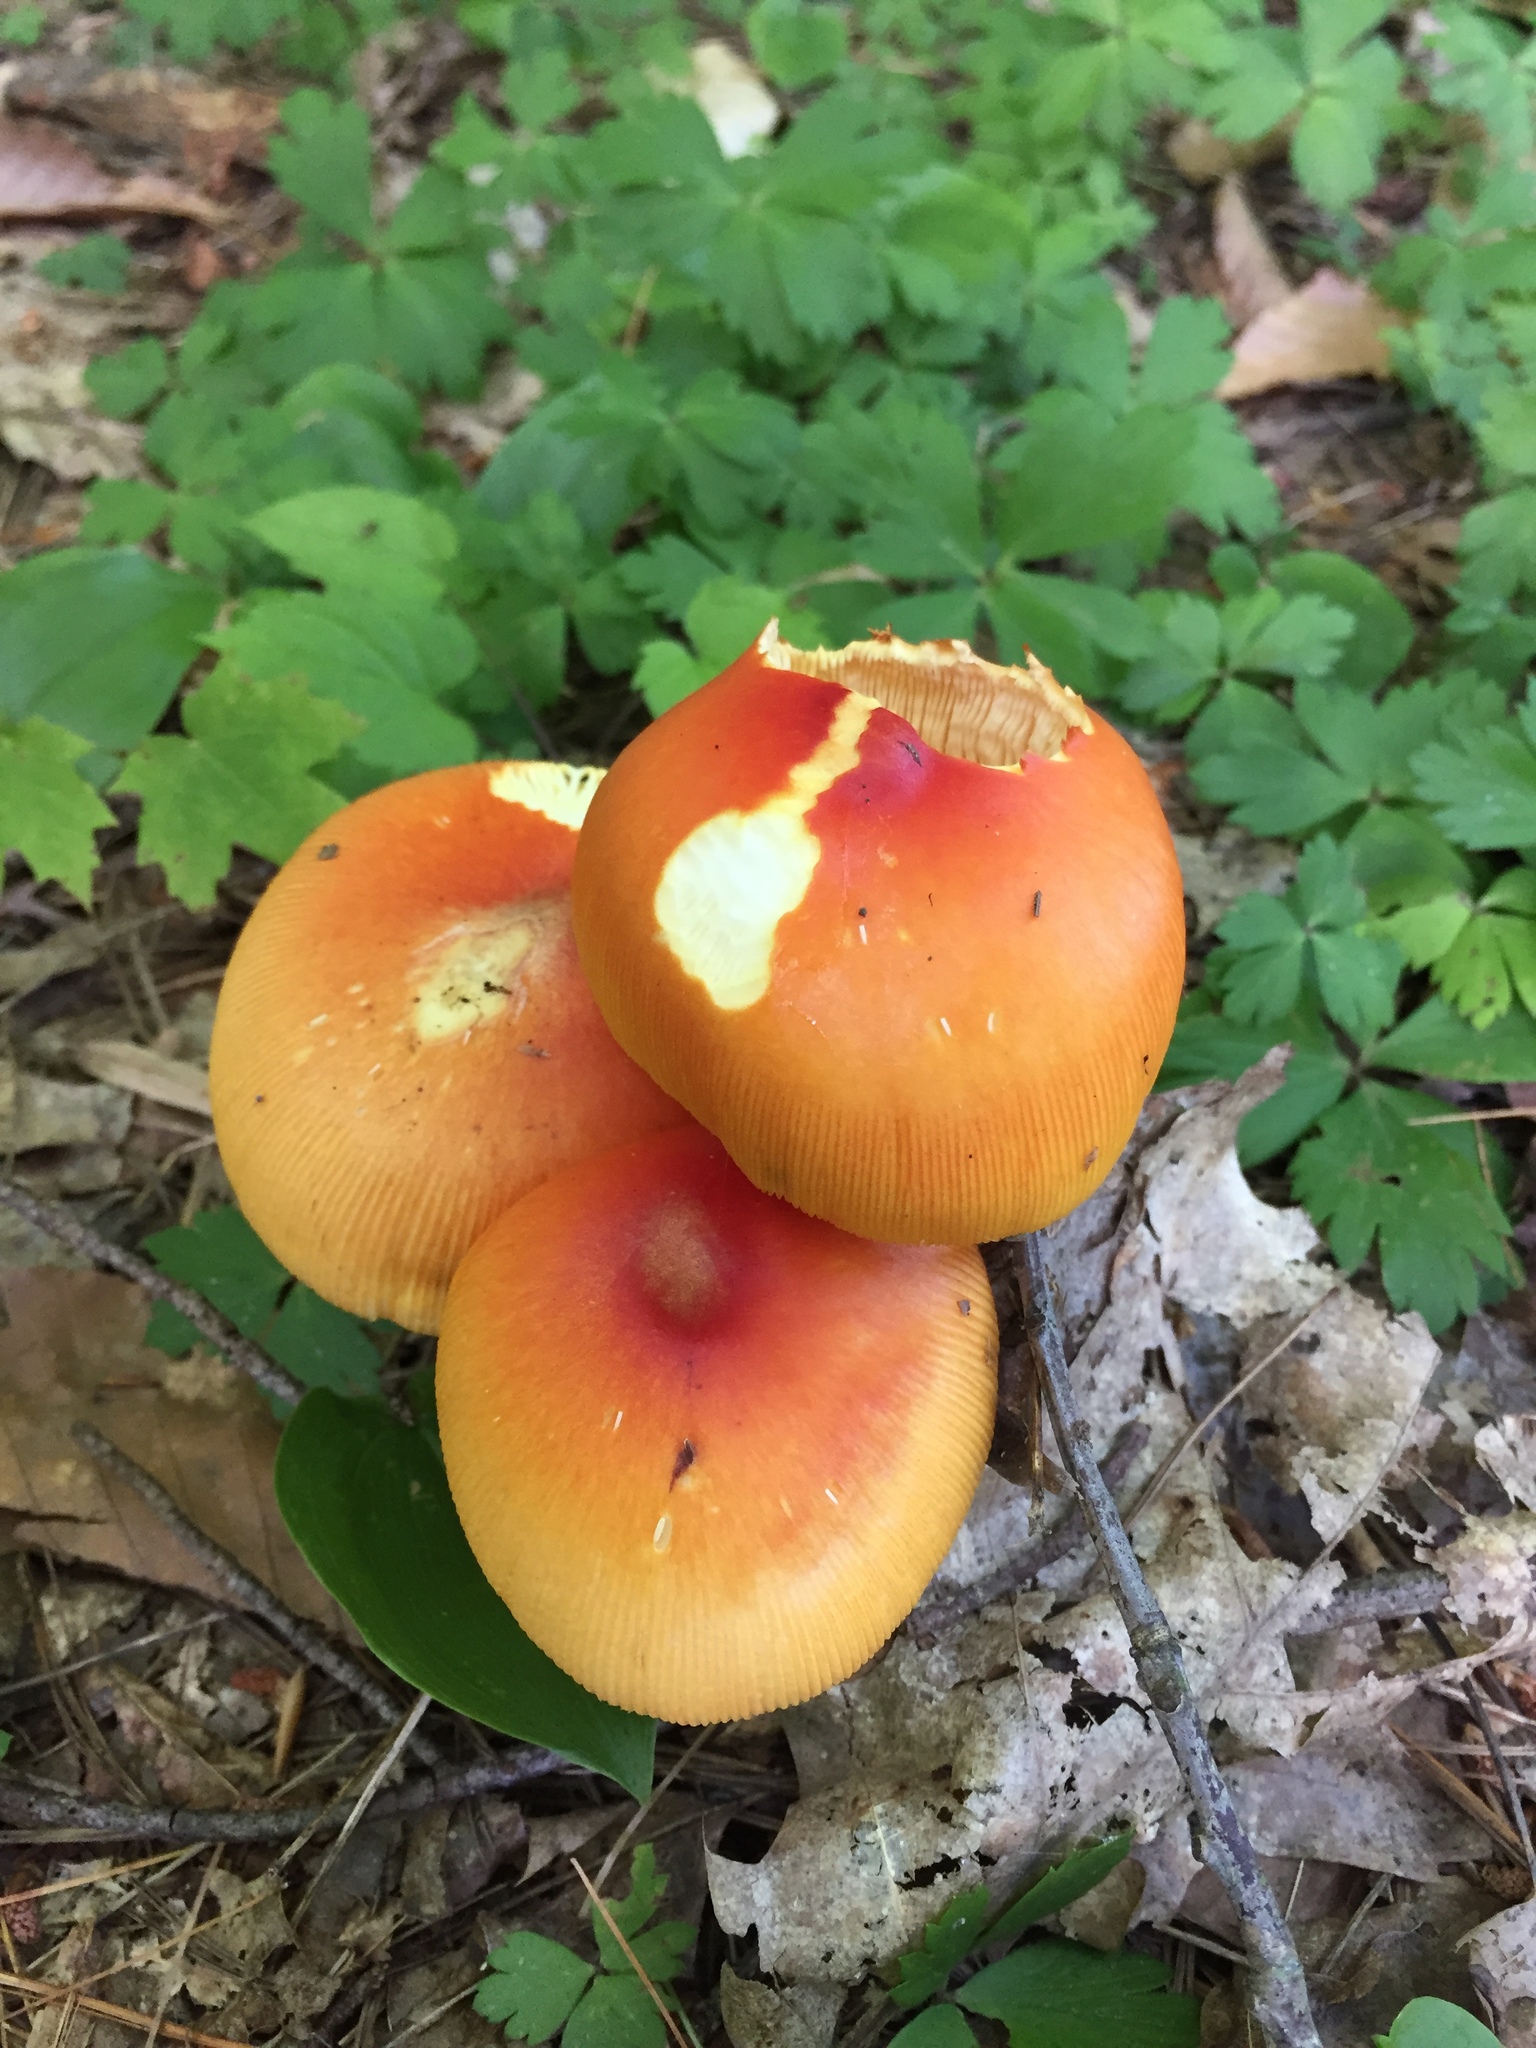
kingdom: Fungi
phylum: Basidiomycota
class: Agaricomycetes
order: Agaricales
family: Amanitaceae
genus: Amanita
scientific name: Amanita jacksonii
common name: Jackson's slender caesar
